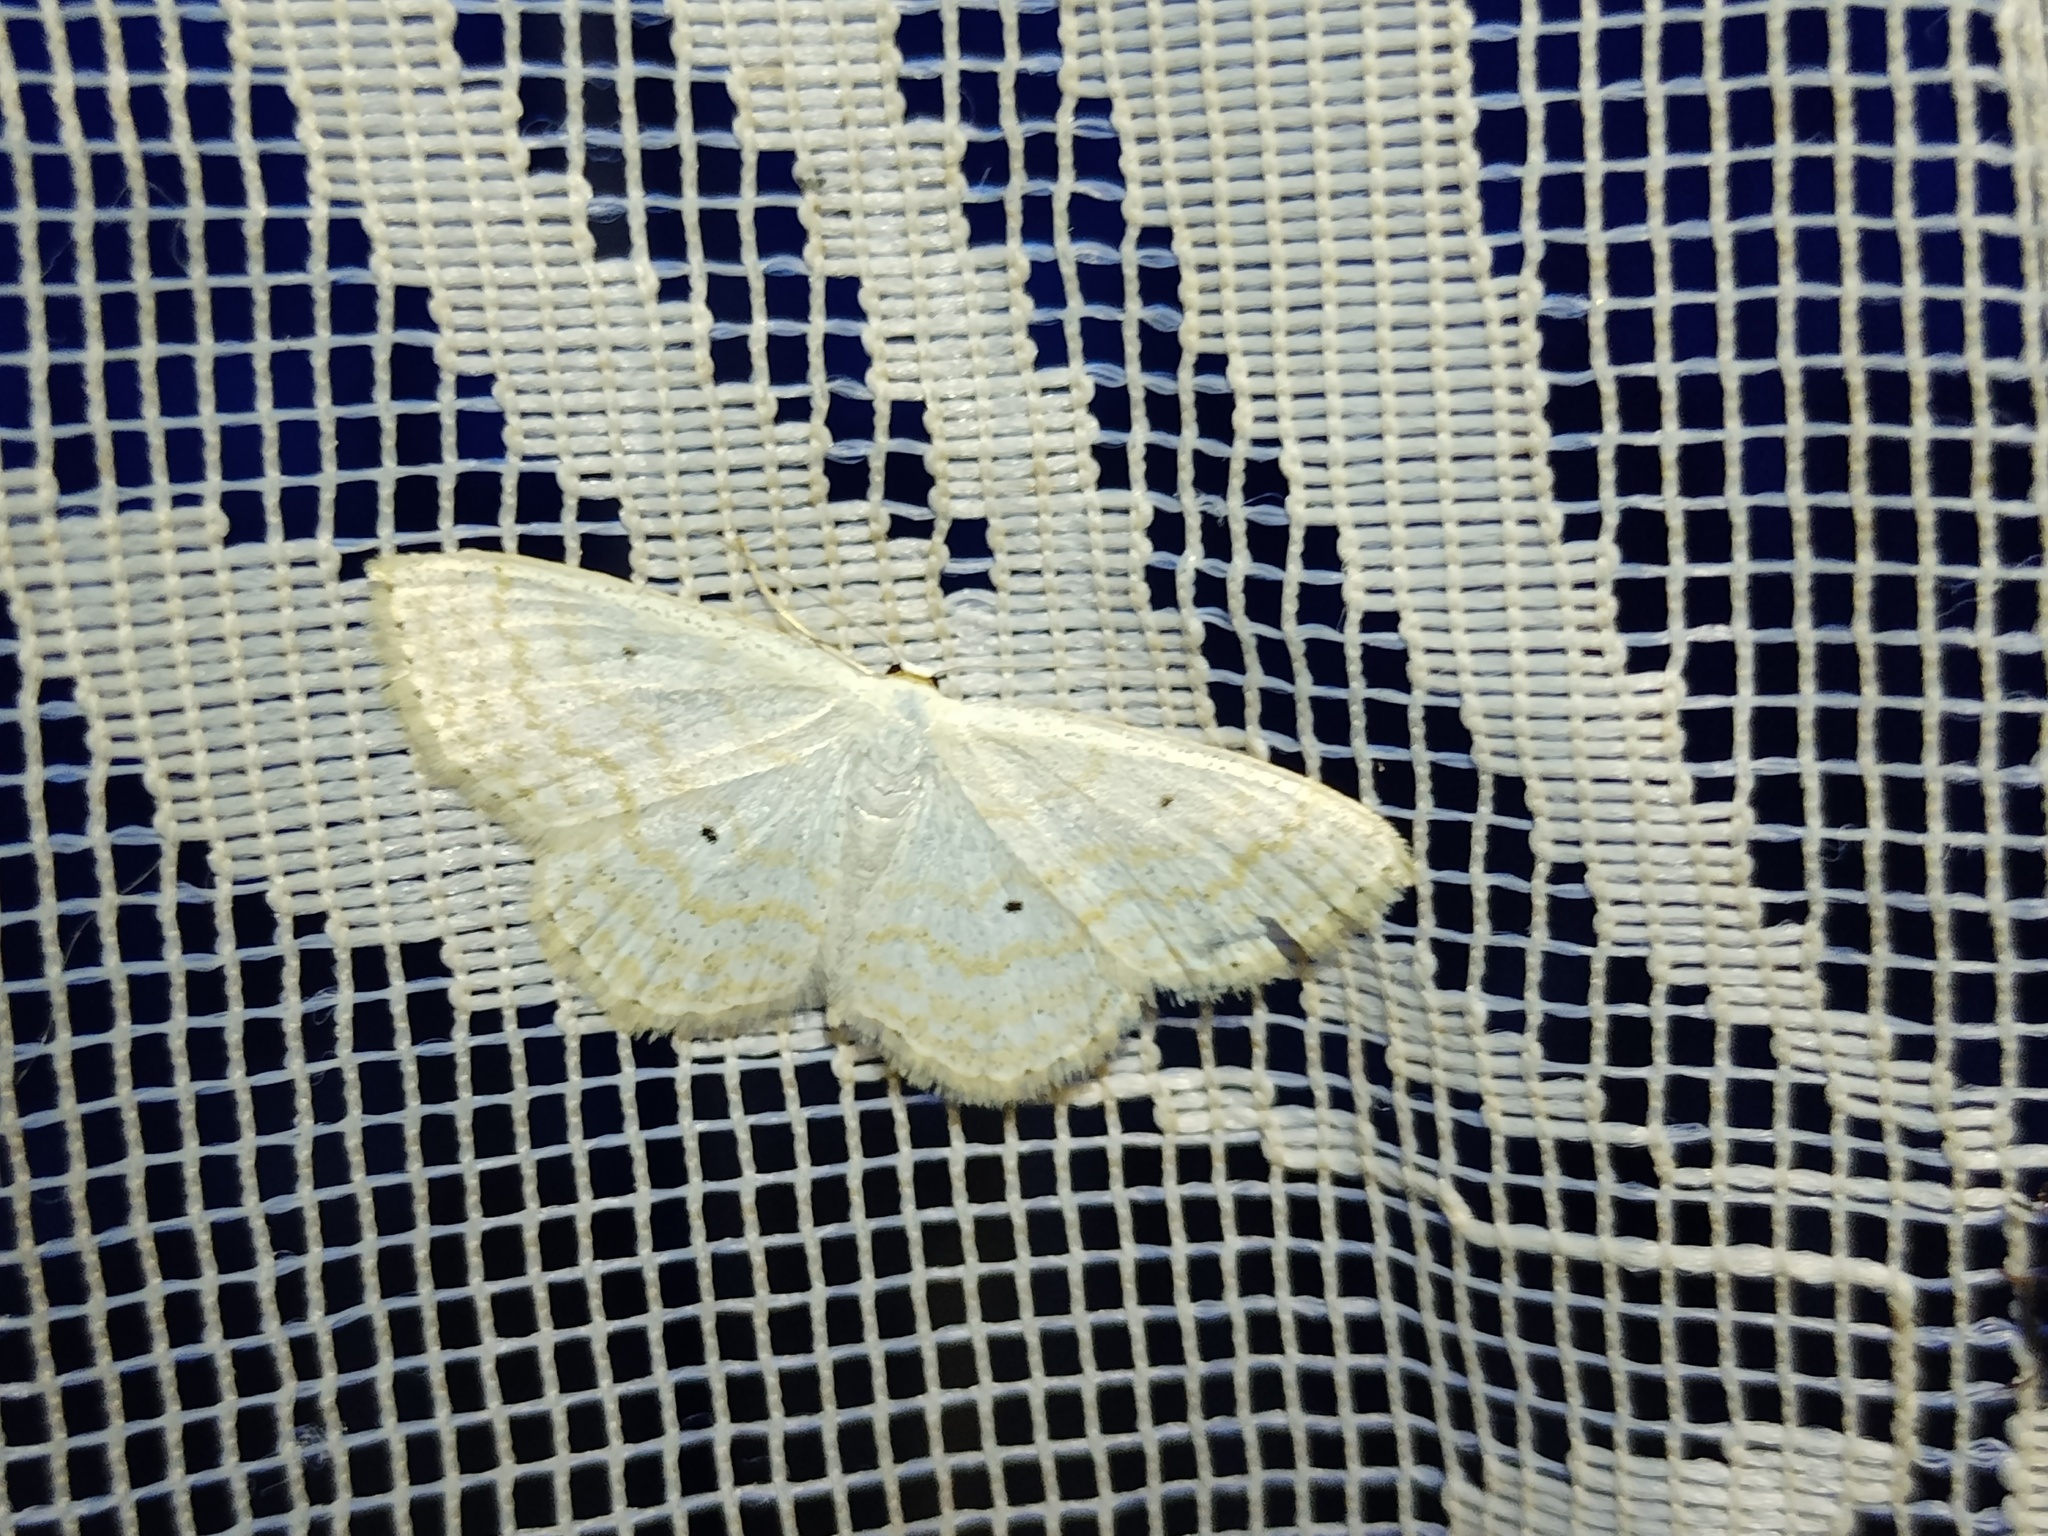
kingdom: Animalia
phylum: Arthropoda
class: Insecta
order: Lepidoptera
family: Geometridae
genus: Scopula
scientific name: Scopula immutata
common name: Lesser cream wave
